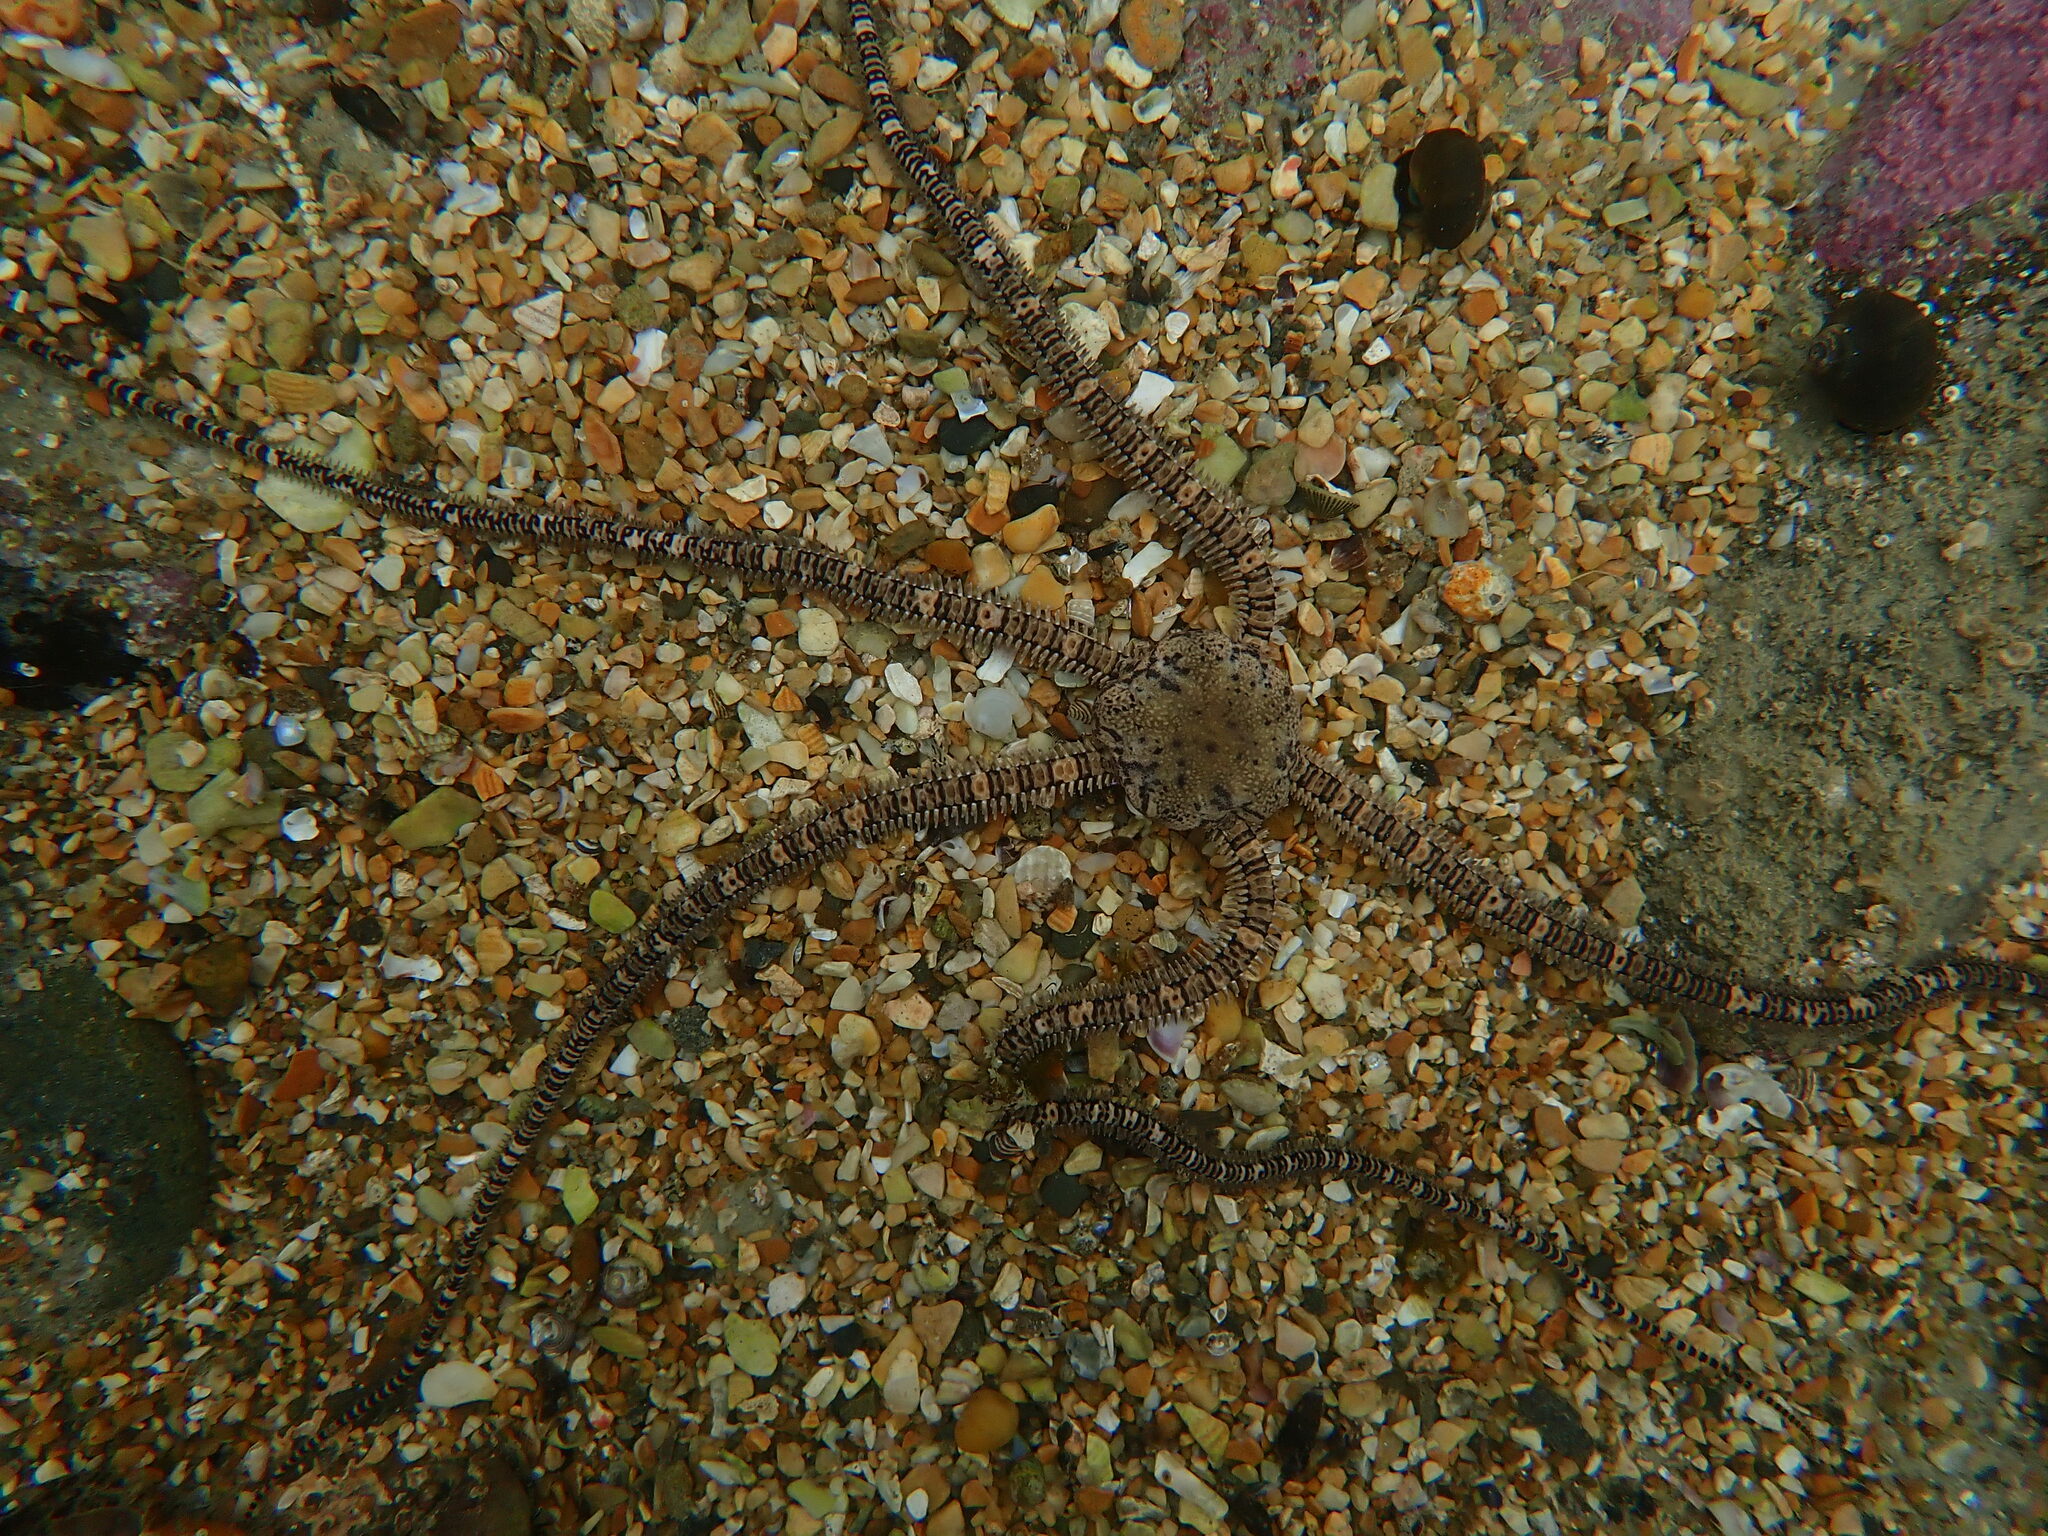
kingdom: Animalia
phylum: Echinodermata
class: Ophiuroidea
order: Amphilepidida
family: Ophionereididae
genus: Ophionereis
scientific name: Ophionereis fasciata
